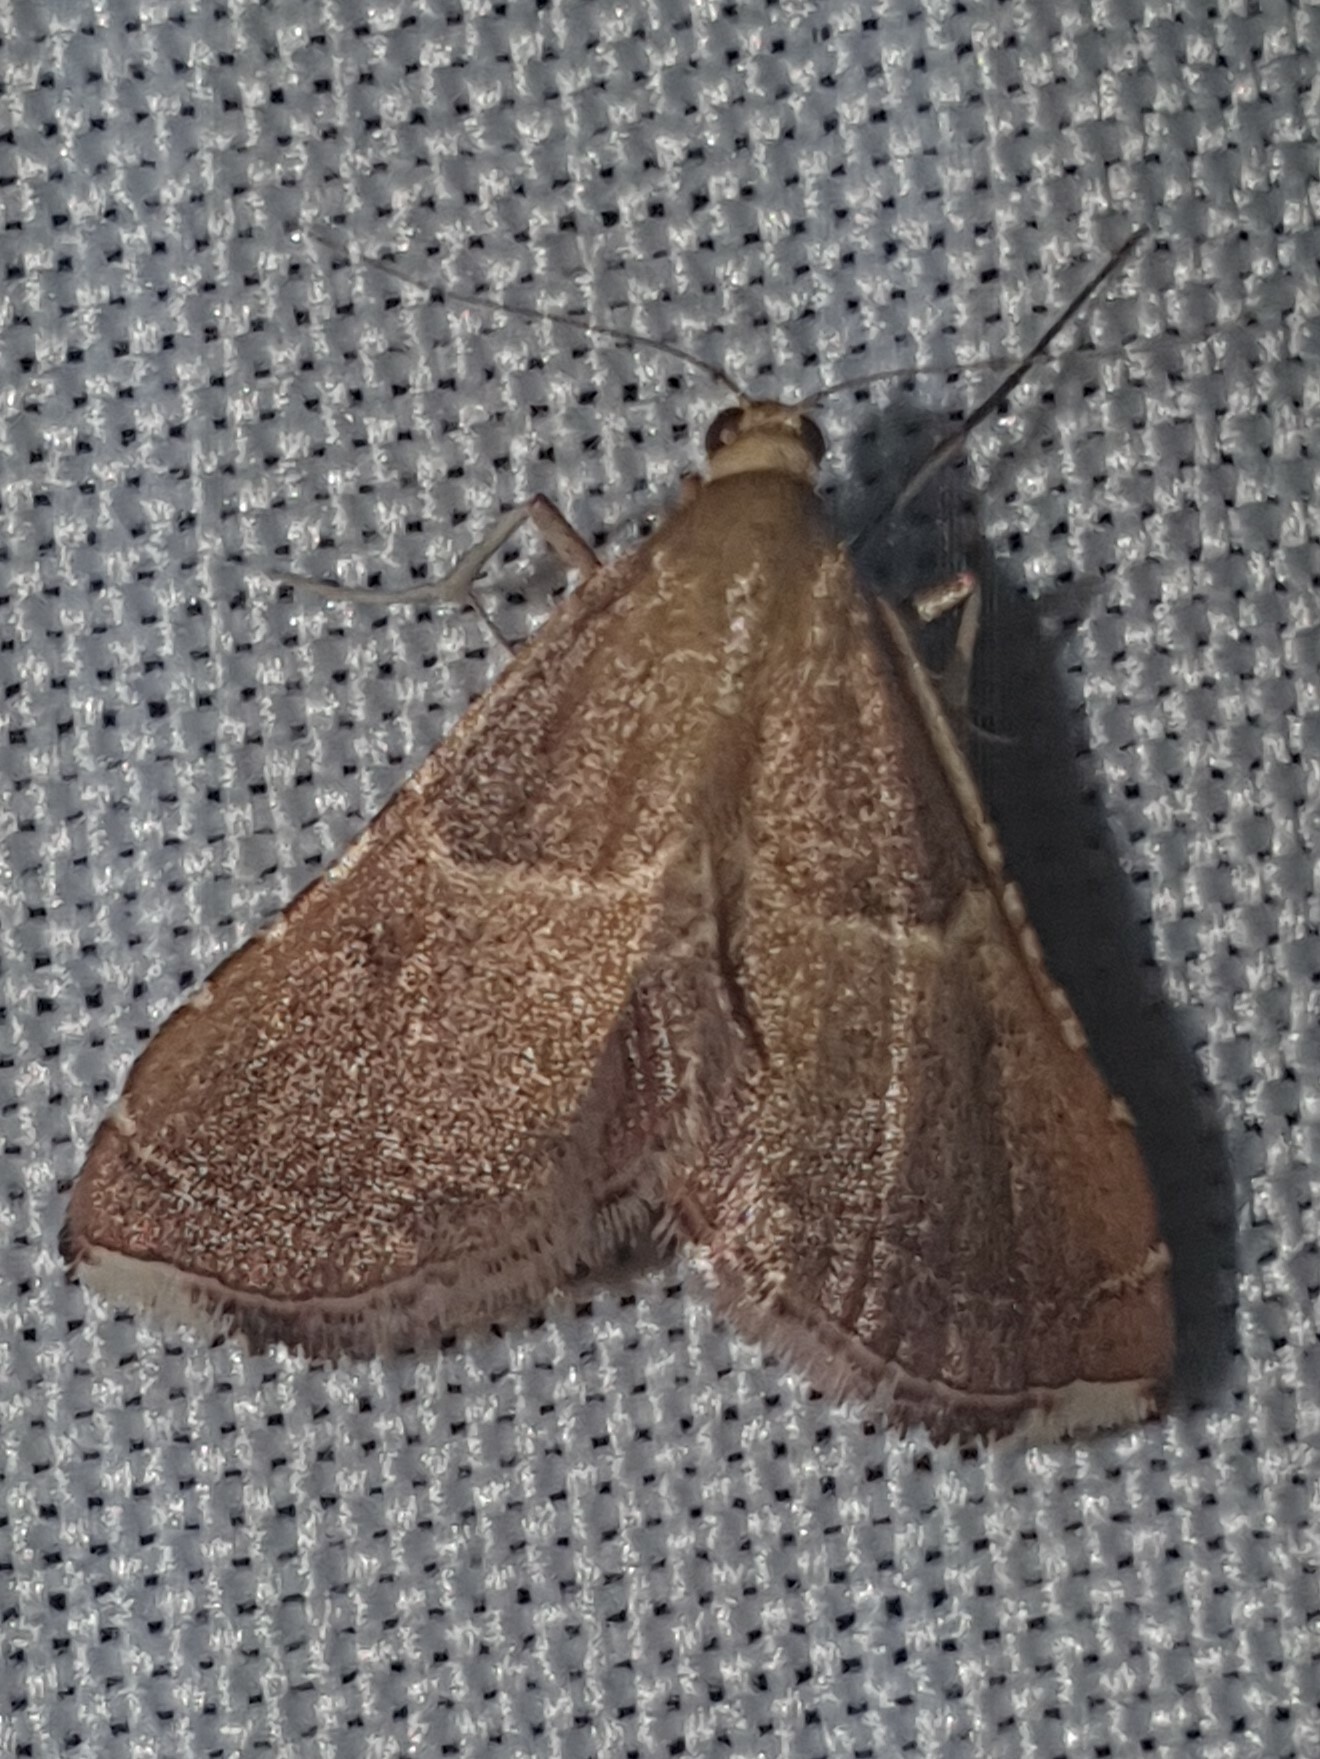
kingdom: Animalia
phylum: Arthropoda
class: Insecta
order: Lepidoptera
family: Pyralidae
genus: Endotricha
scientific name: Endotricha flammealis
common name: Rosy tabby
